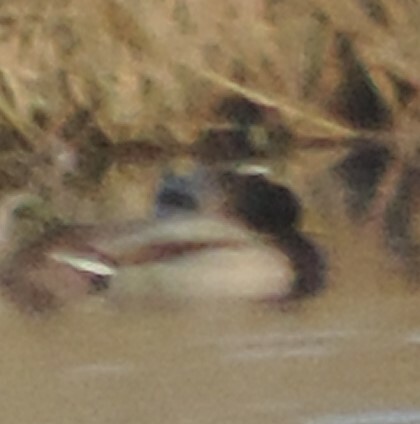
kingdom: Animalia
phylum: Chordata
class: Aves
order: Anseriformes
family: Anatidae
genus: Anas
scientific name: Anas platyrhynchos
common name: Mallard
